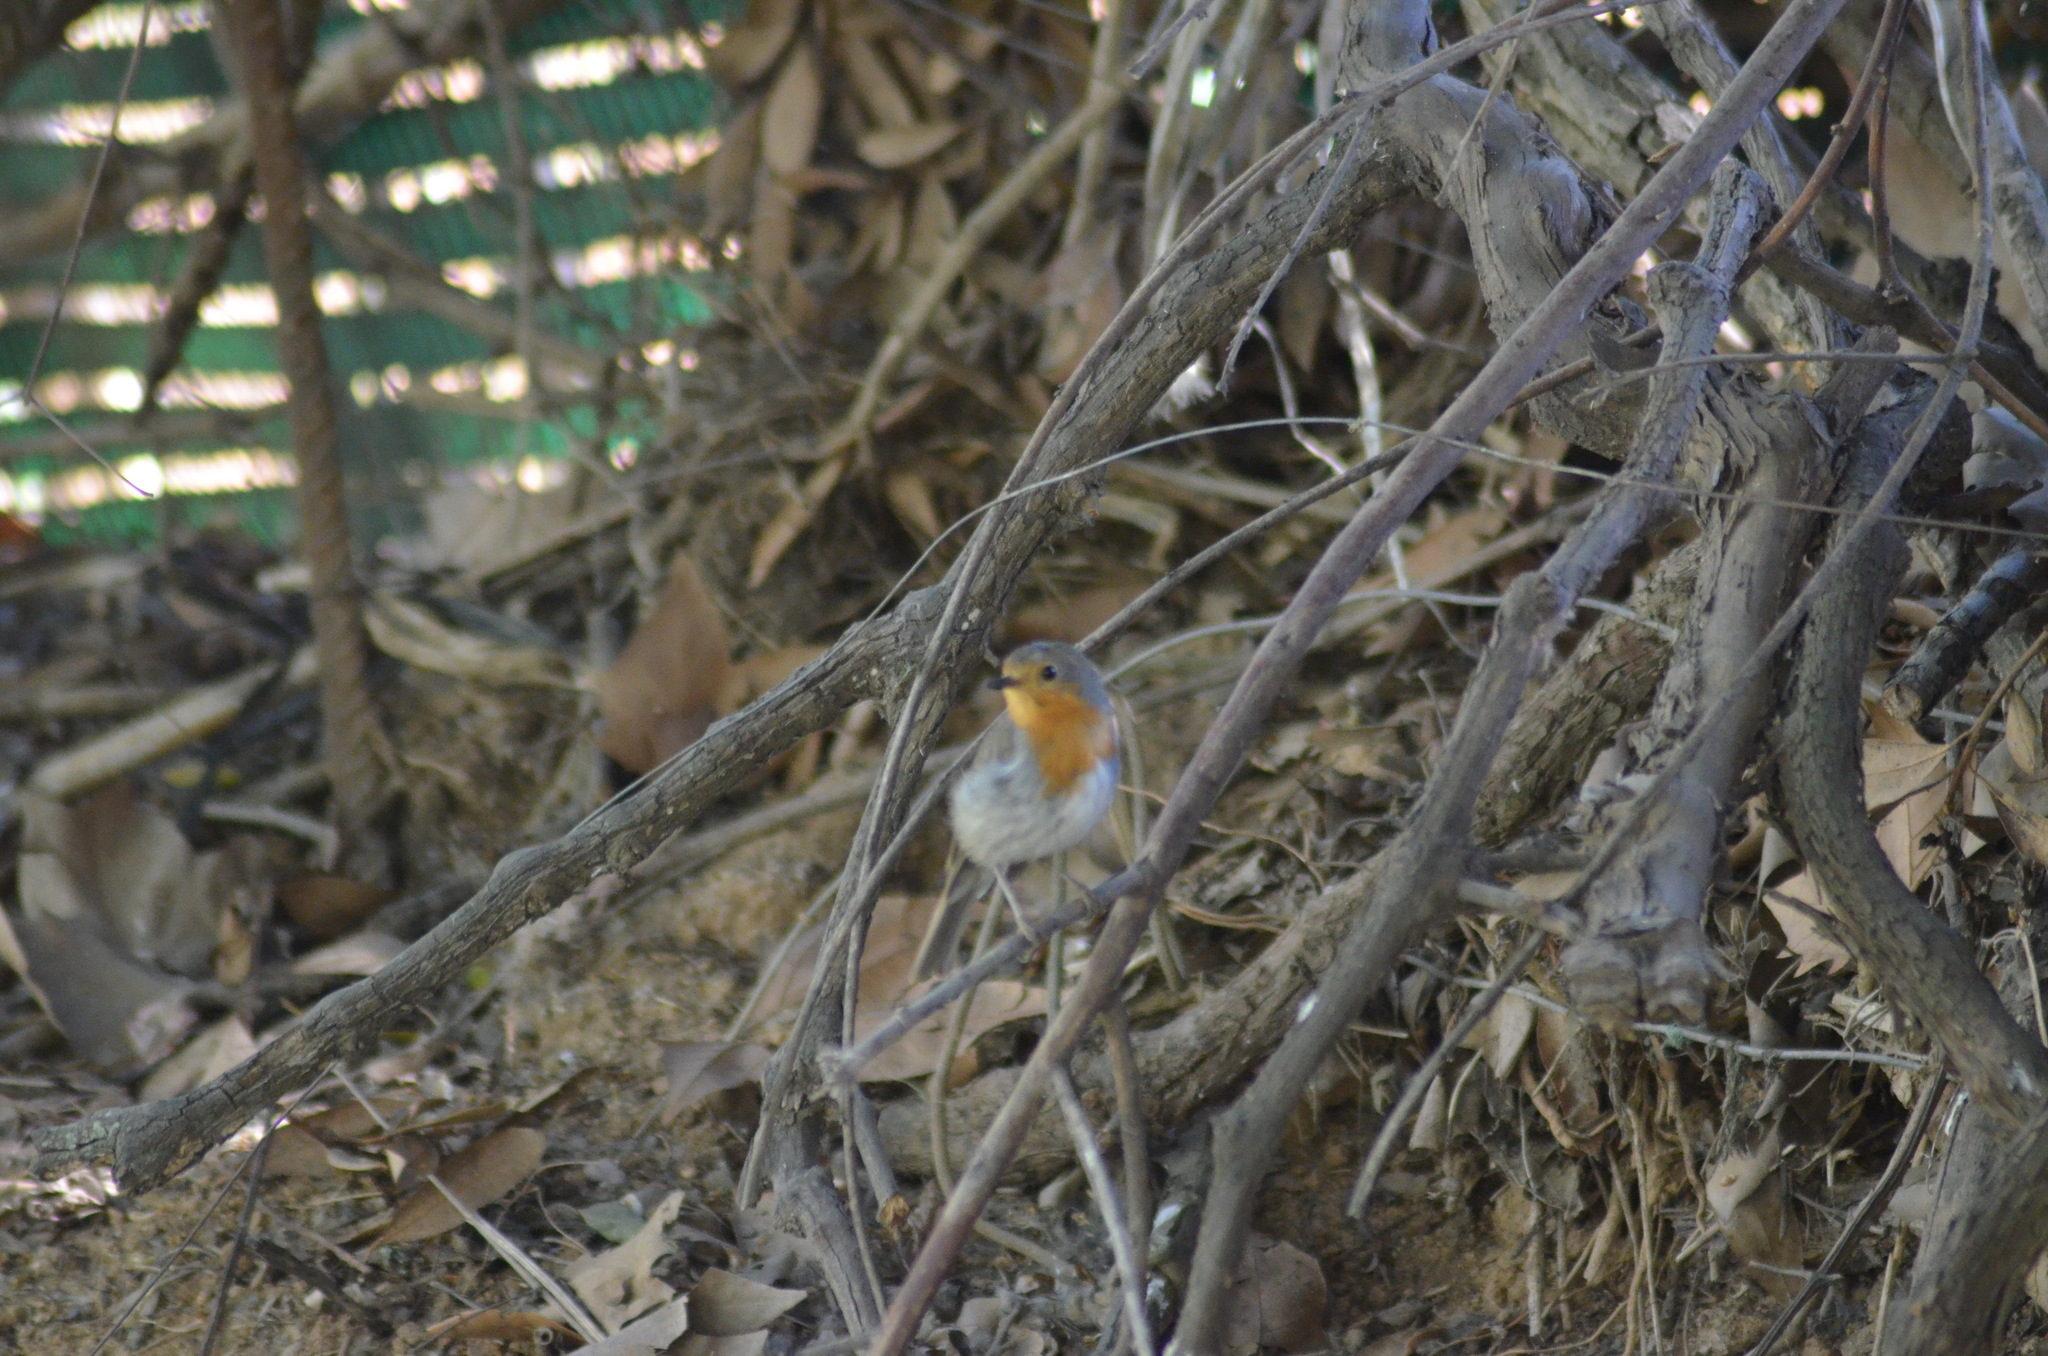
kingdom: Animalia
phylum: Chordata
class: Aves
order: Passeriformes
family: Muscicapidae
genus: Erithacus
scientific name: Erithacus rubecula
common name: European robin
